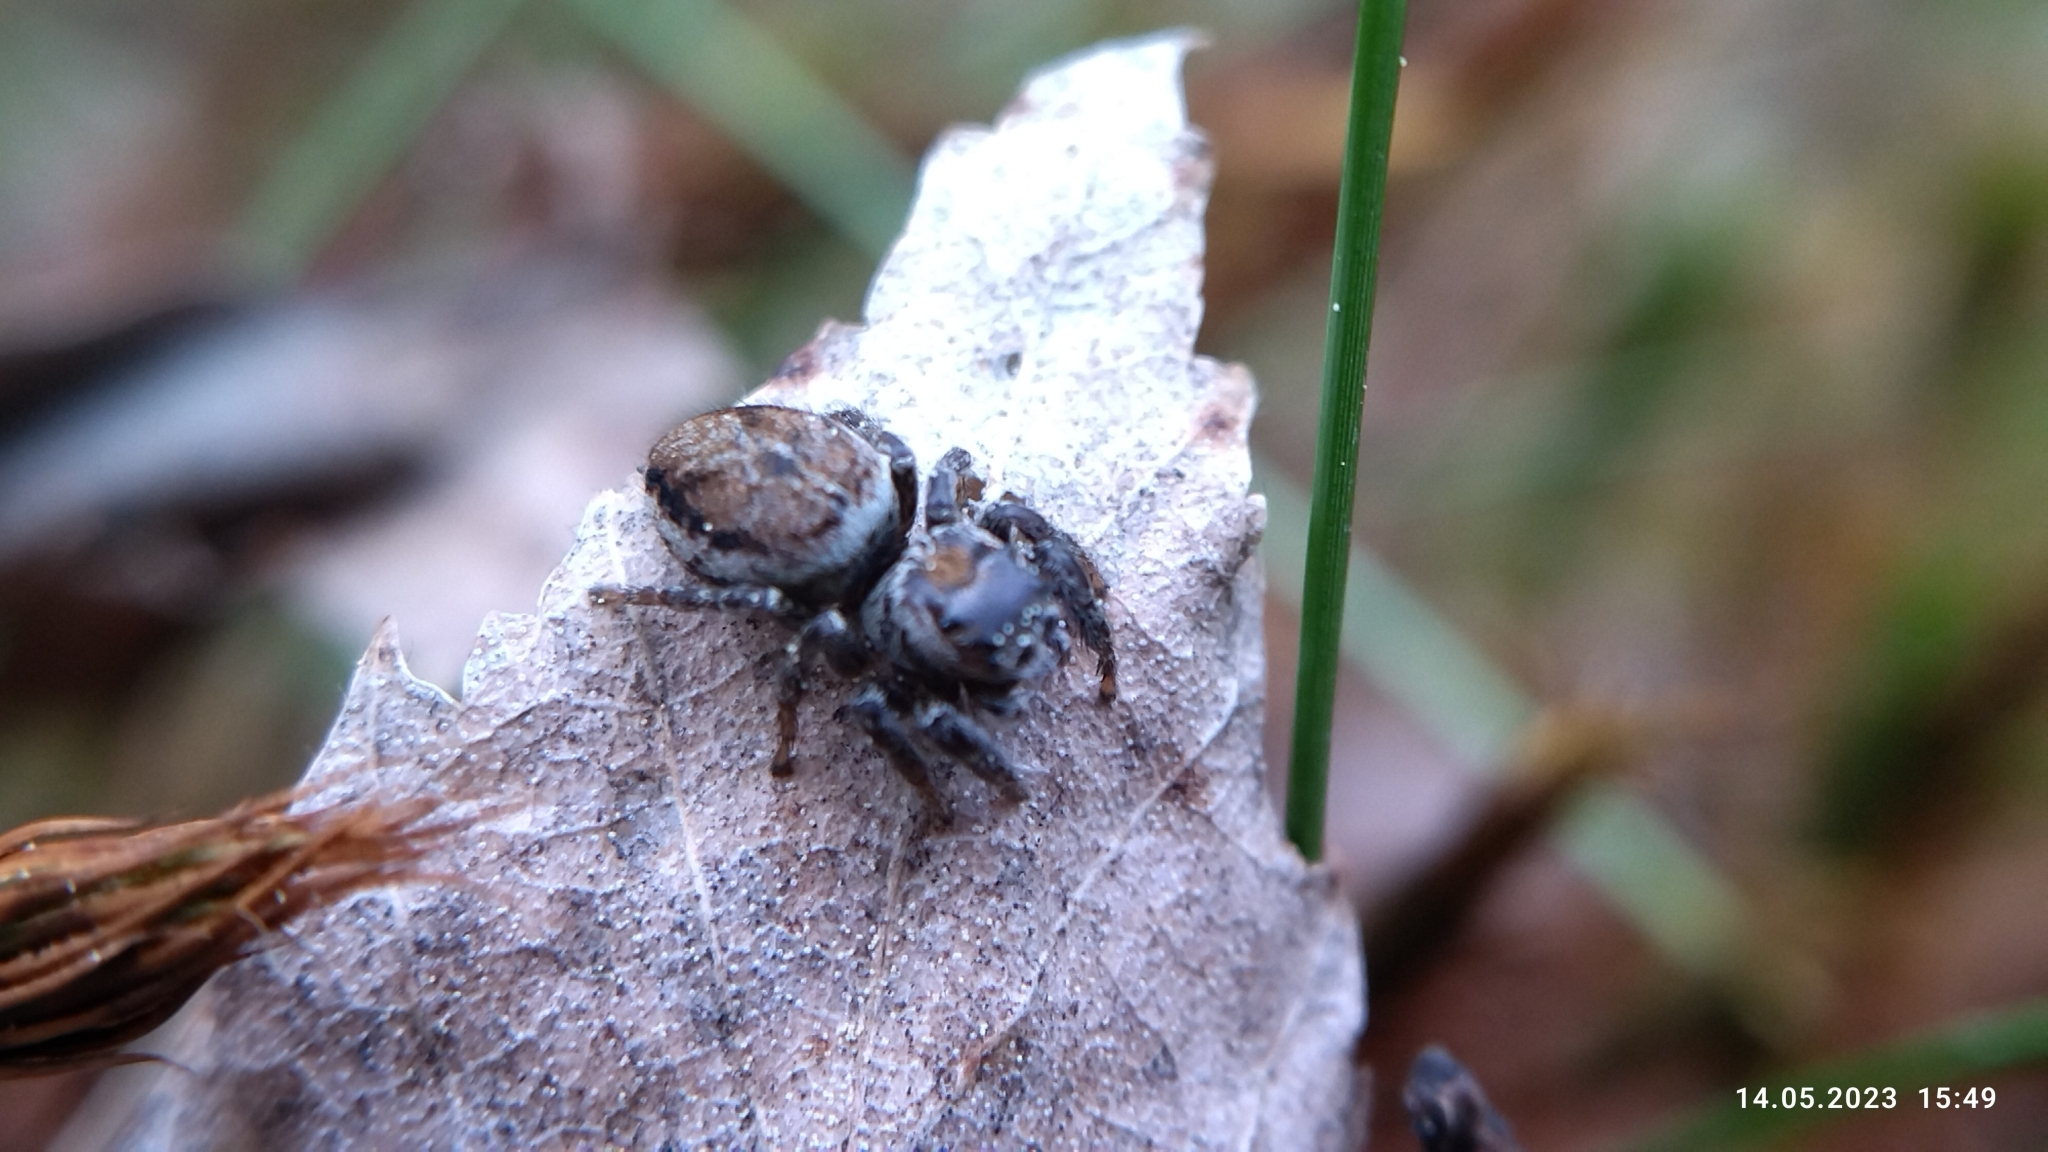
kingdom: Animalia
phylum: Arthropoda
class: Arachnida
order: Araneae
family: Salticidae
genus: Evarcha
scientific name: Evarcha falcata
